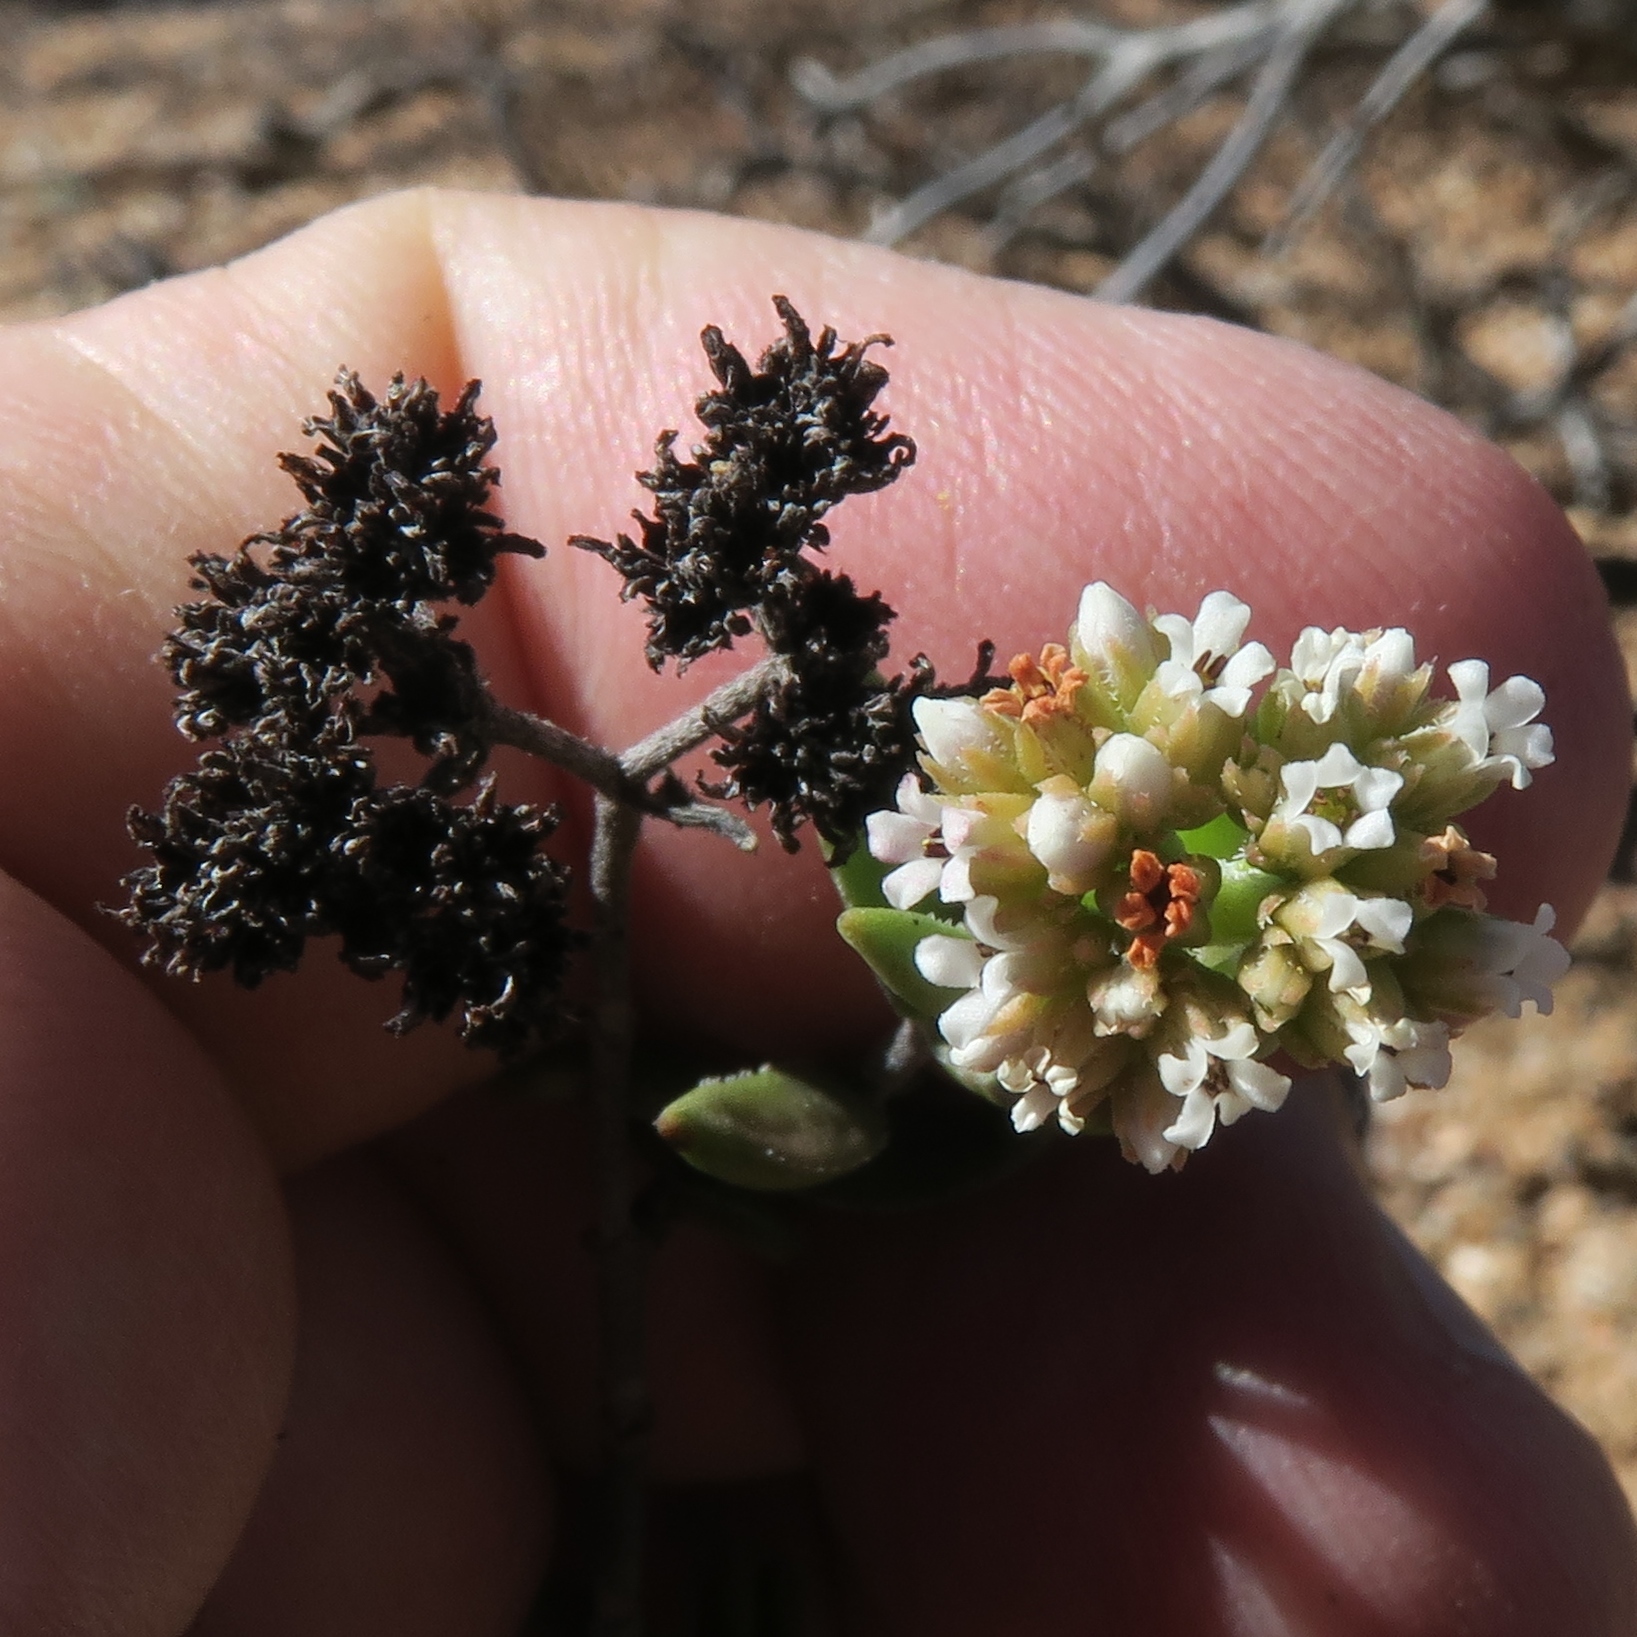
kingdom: Plantae
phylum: Tracheophyta
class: Magnoliopsida
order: Saxifragales
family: Crassulaceae
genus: Crassula
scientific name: Crassula rudolfii
